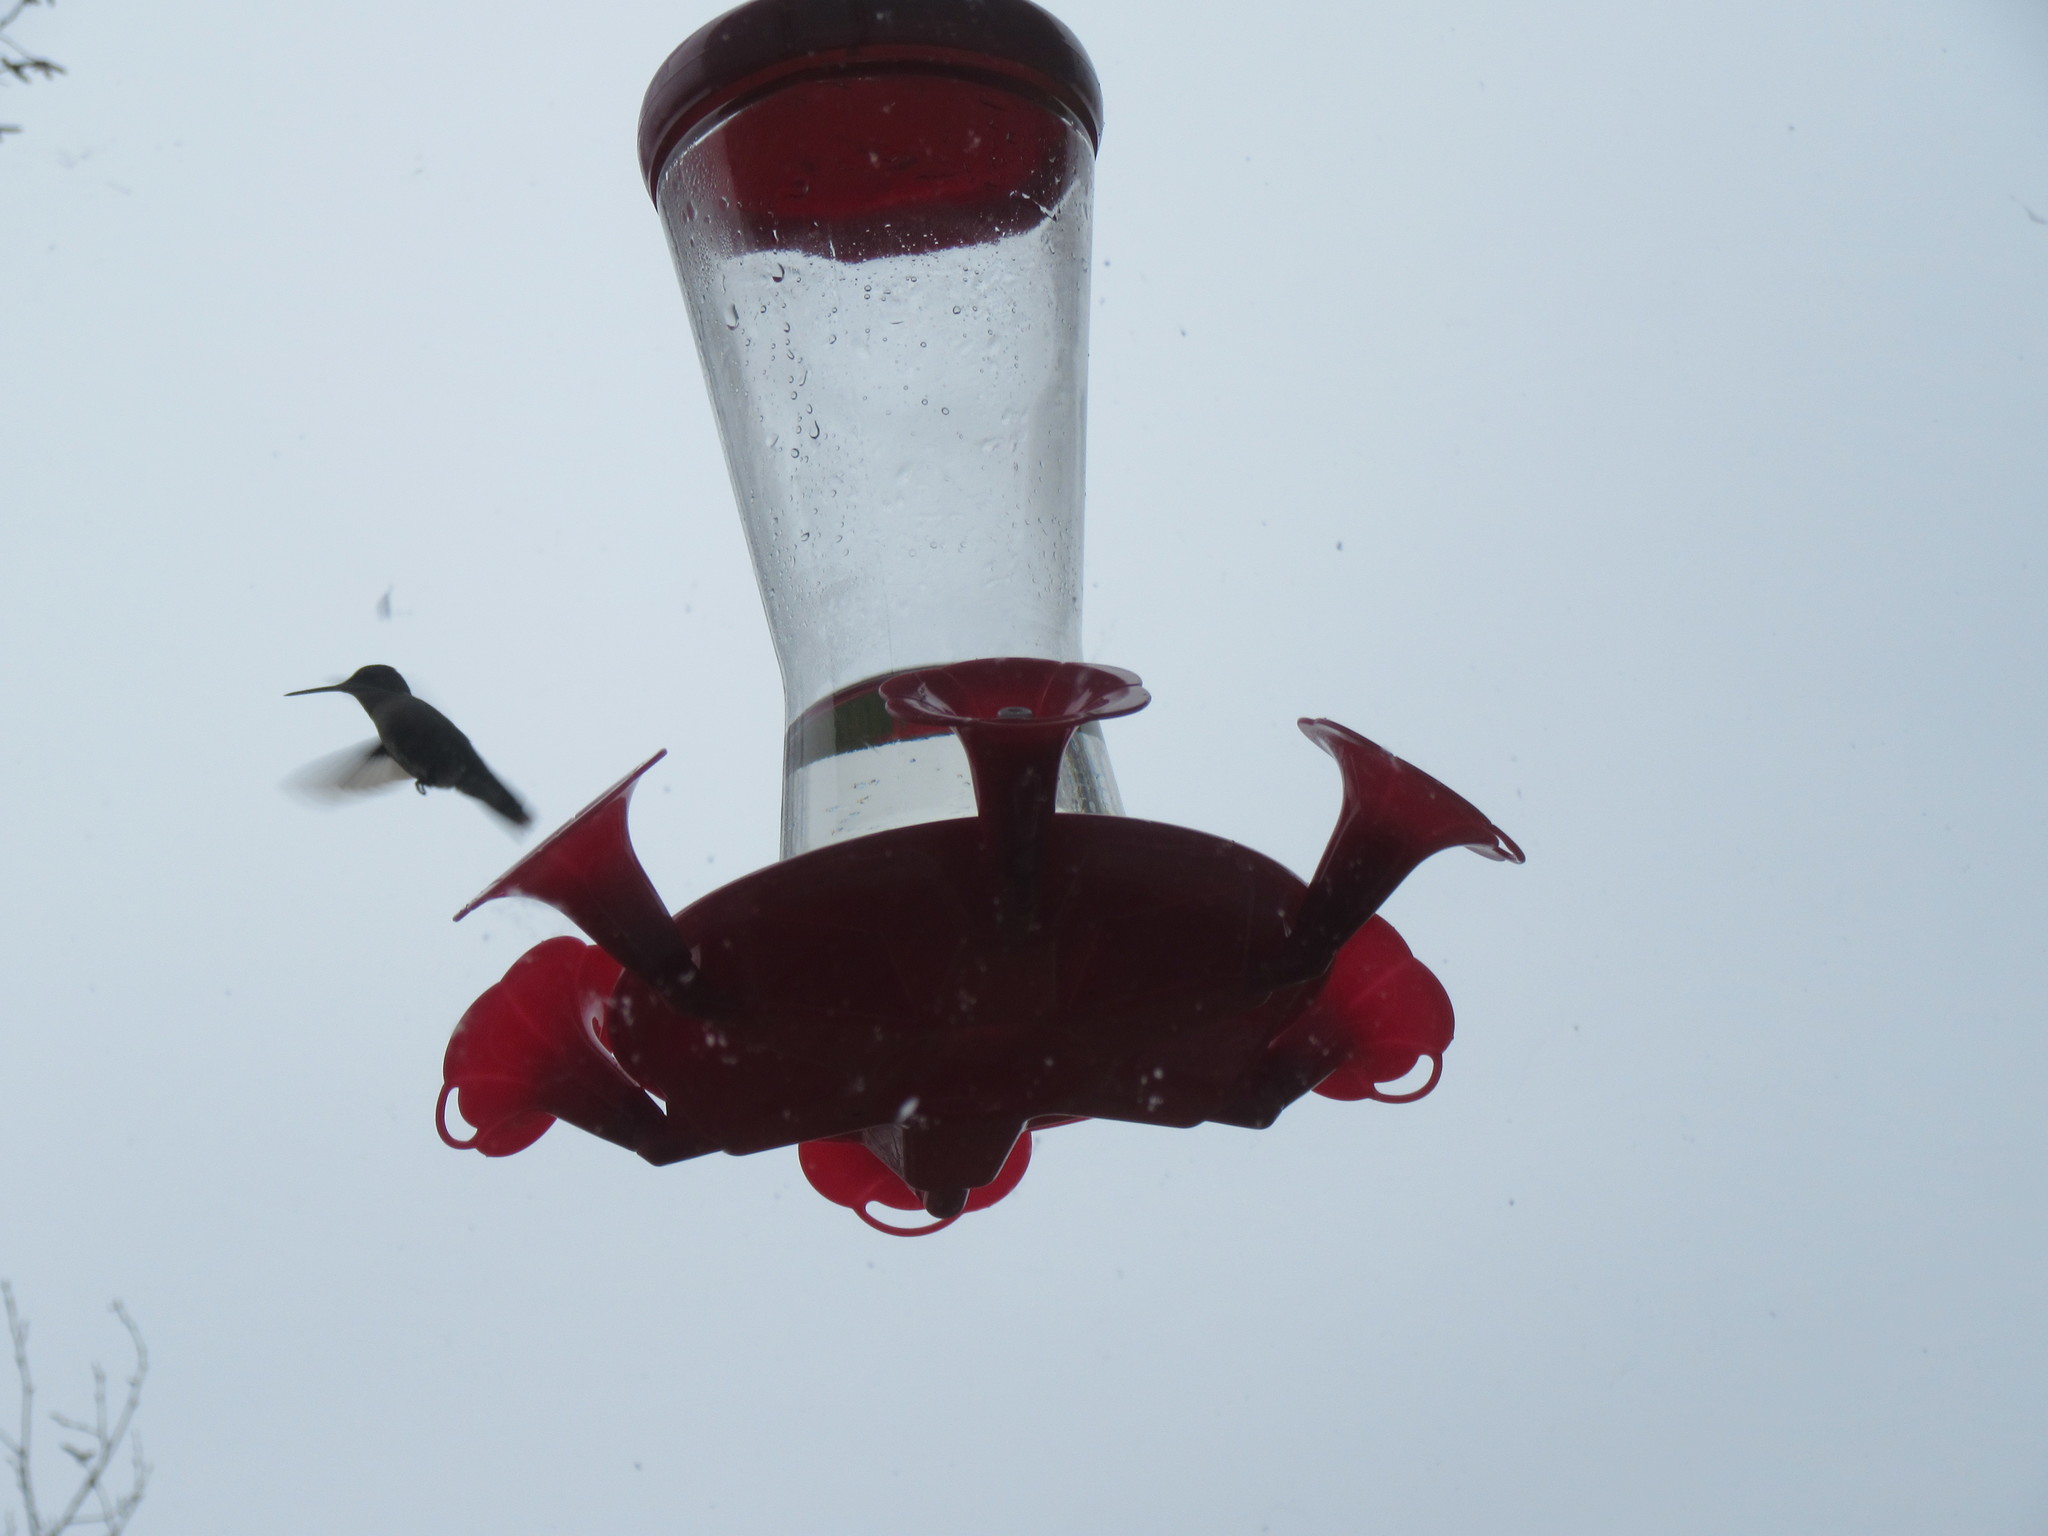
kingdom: Animalia
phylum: Chordata
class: Aves
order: Apodiformes
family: Trochilidae
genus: Archilochus
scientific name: Archilochus colubris
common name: Ruby-throated hummingbird
